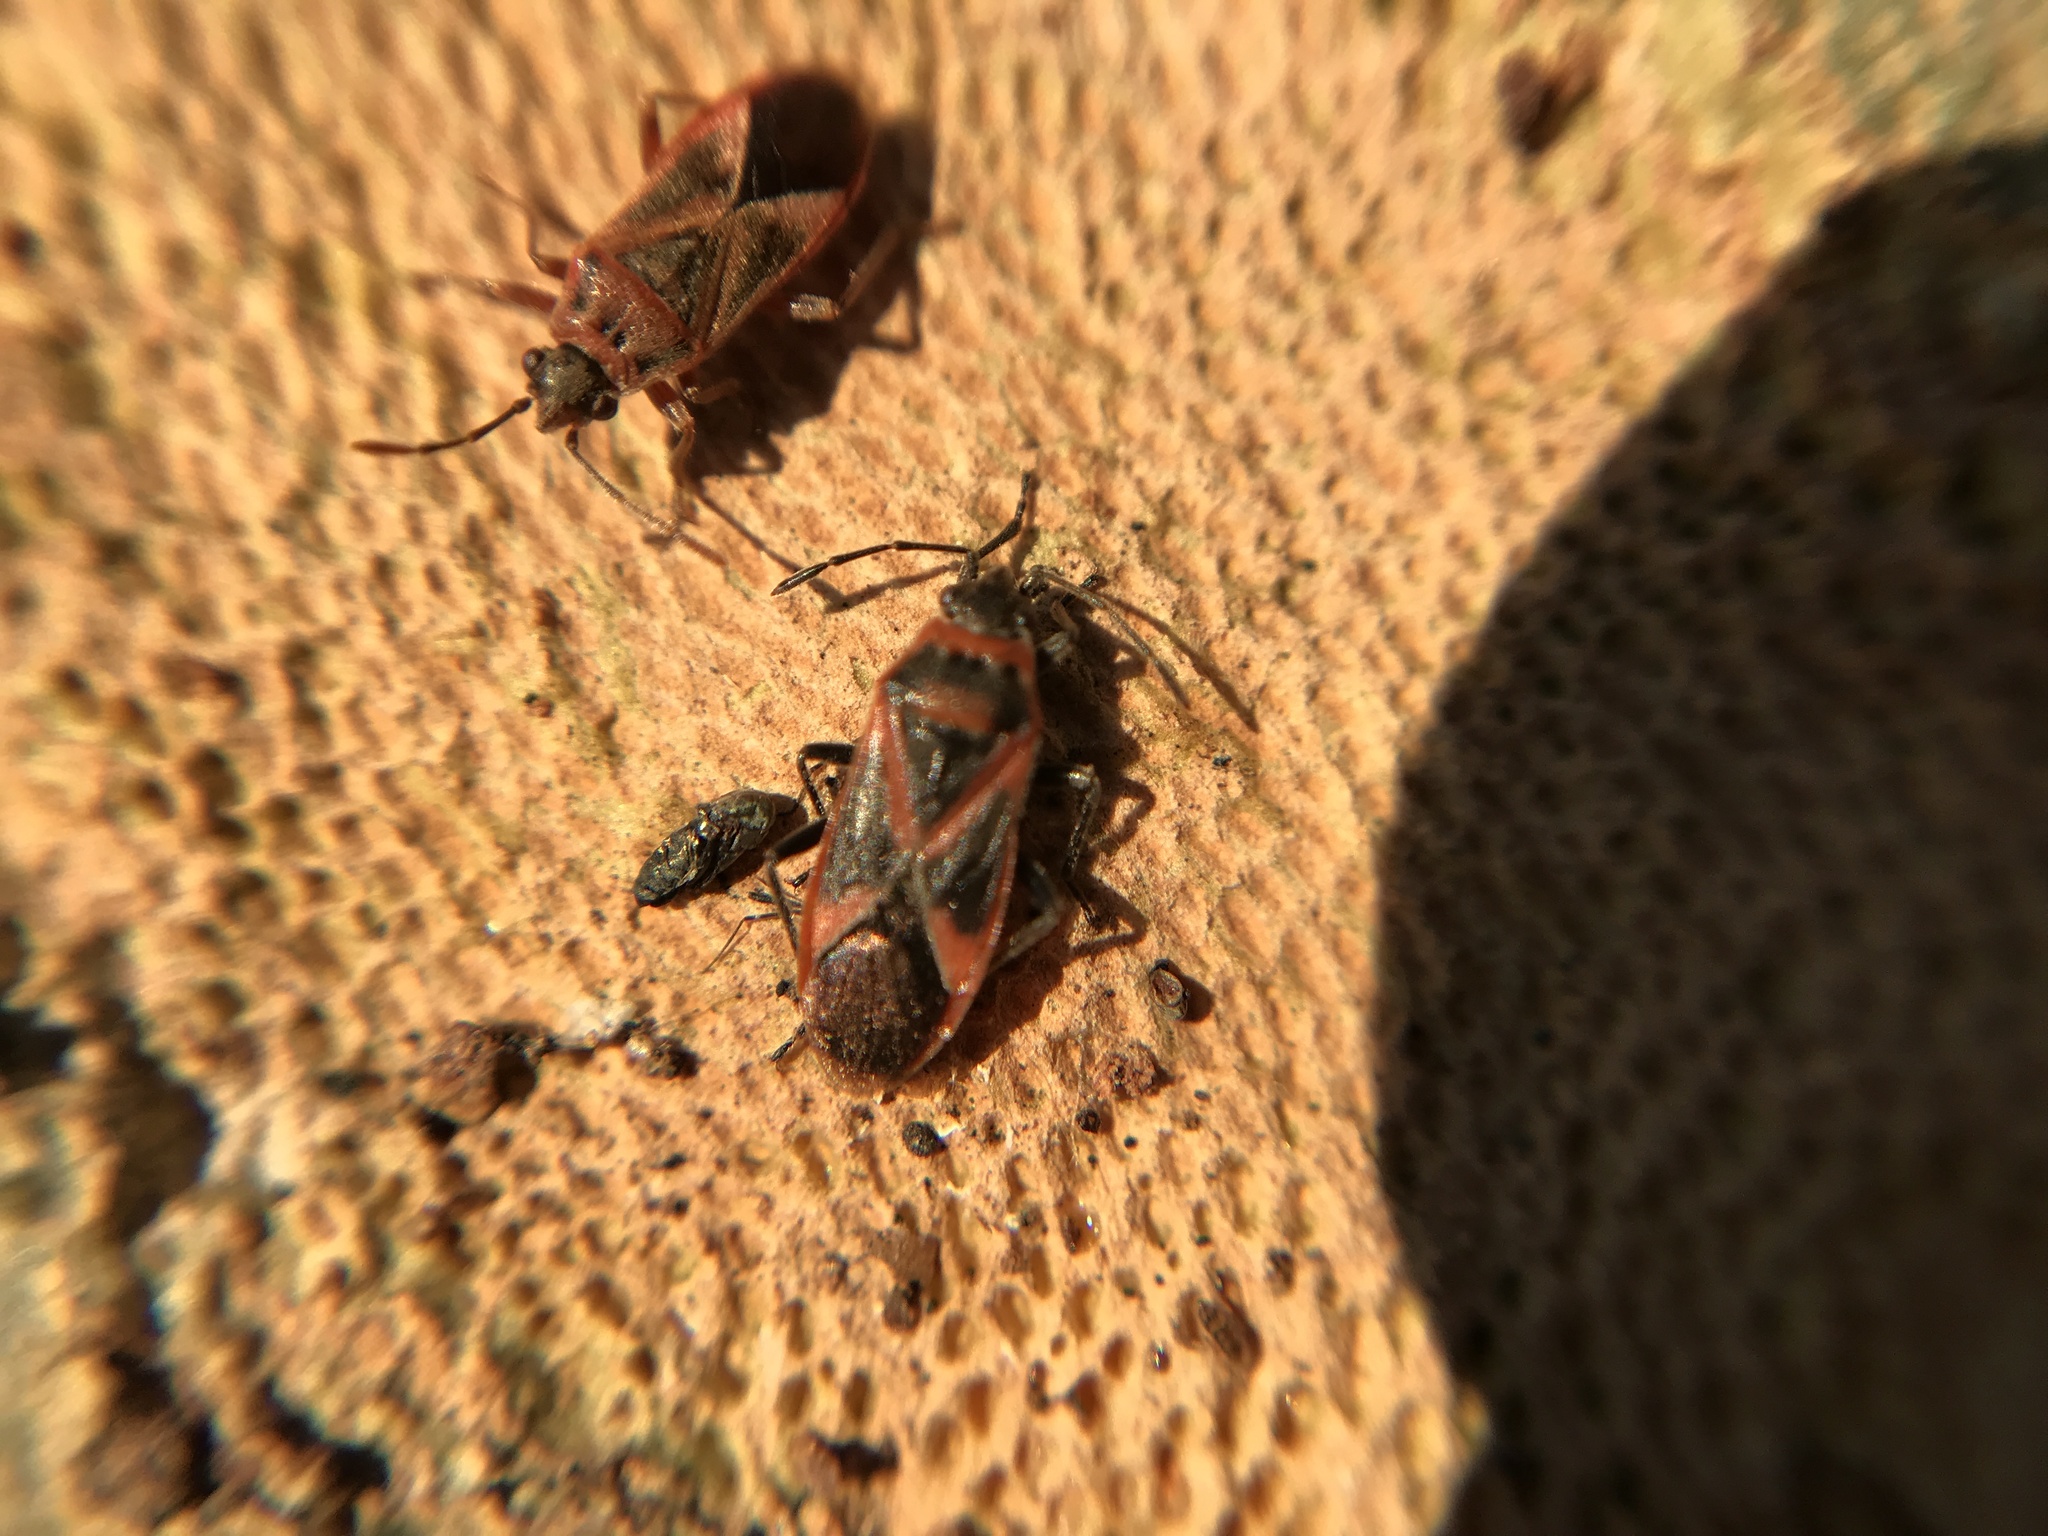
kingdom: Animalia
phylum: Arthropoda
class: Insecta
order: Hemiptera
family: Lygaeidae
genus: Arocatus
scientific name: Arocatus roeselii
